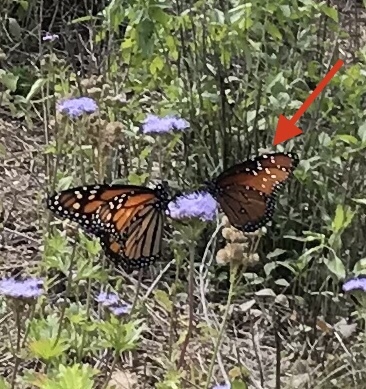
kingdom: Animalia
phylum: Arthropoda
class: Insecta
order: Lepidoptera
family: Nymphalidae
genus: Danaus
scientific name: Danaus gilippus
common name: Queen
